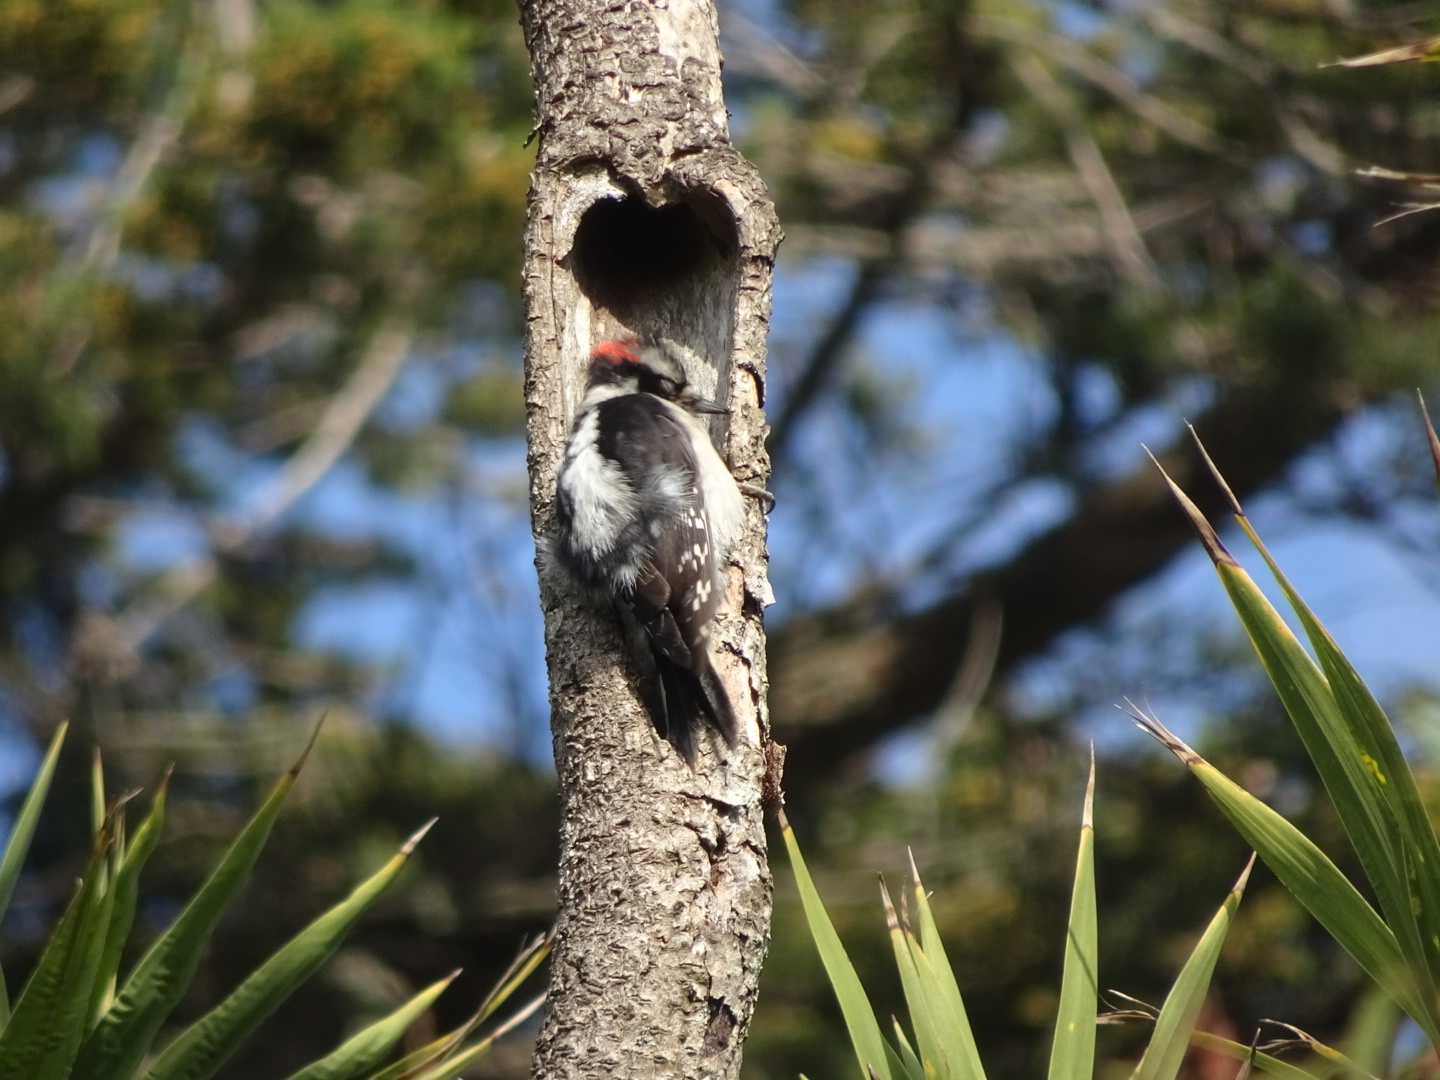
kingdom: Animalia
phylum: Chordata
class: Aves
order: Piciformes
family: Picidae
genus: Dryobates
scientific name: Dryobates pubescens
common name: Downy woodpecker
